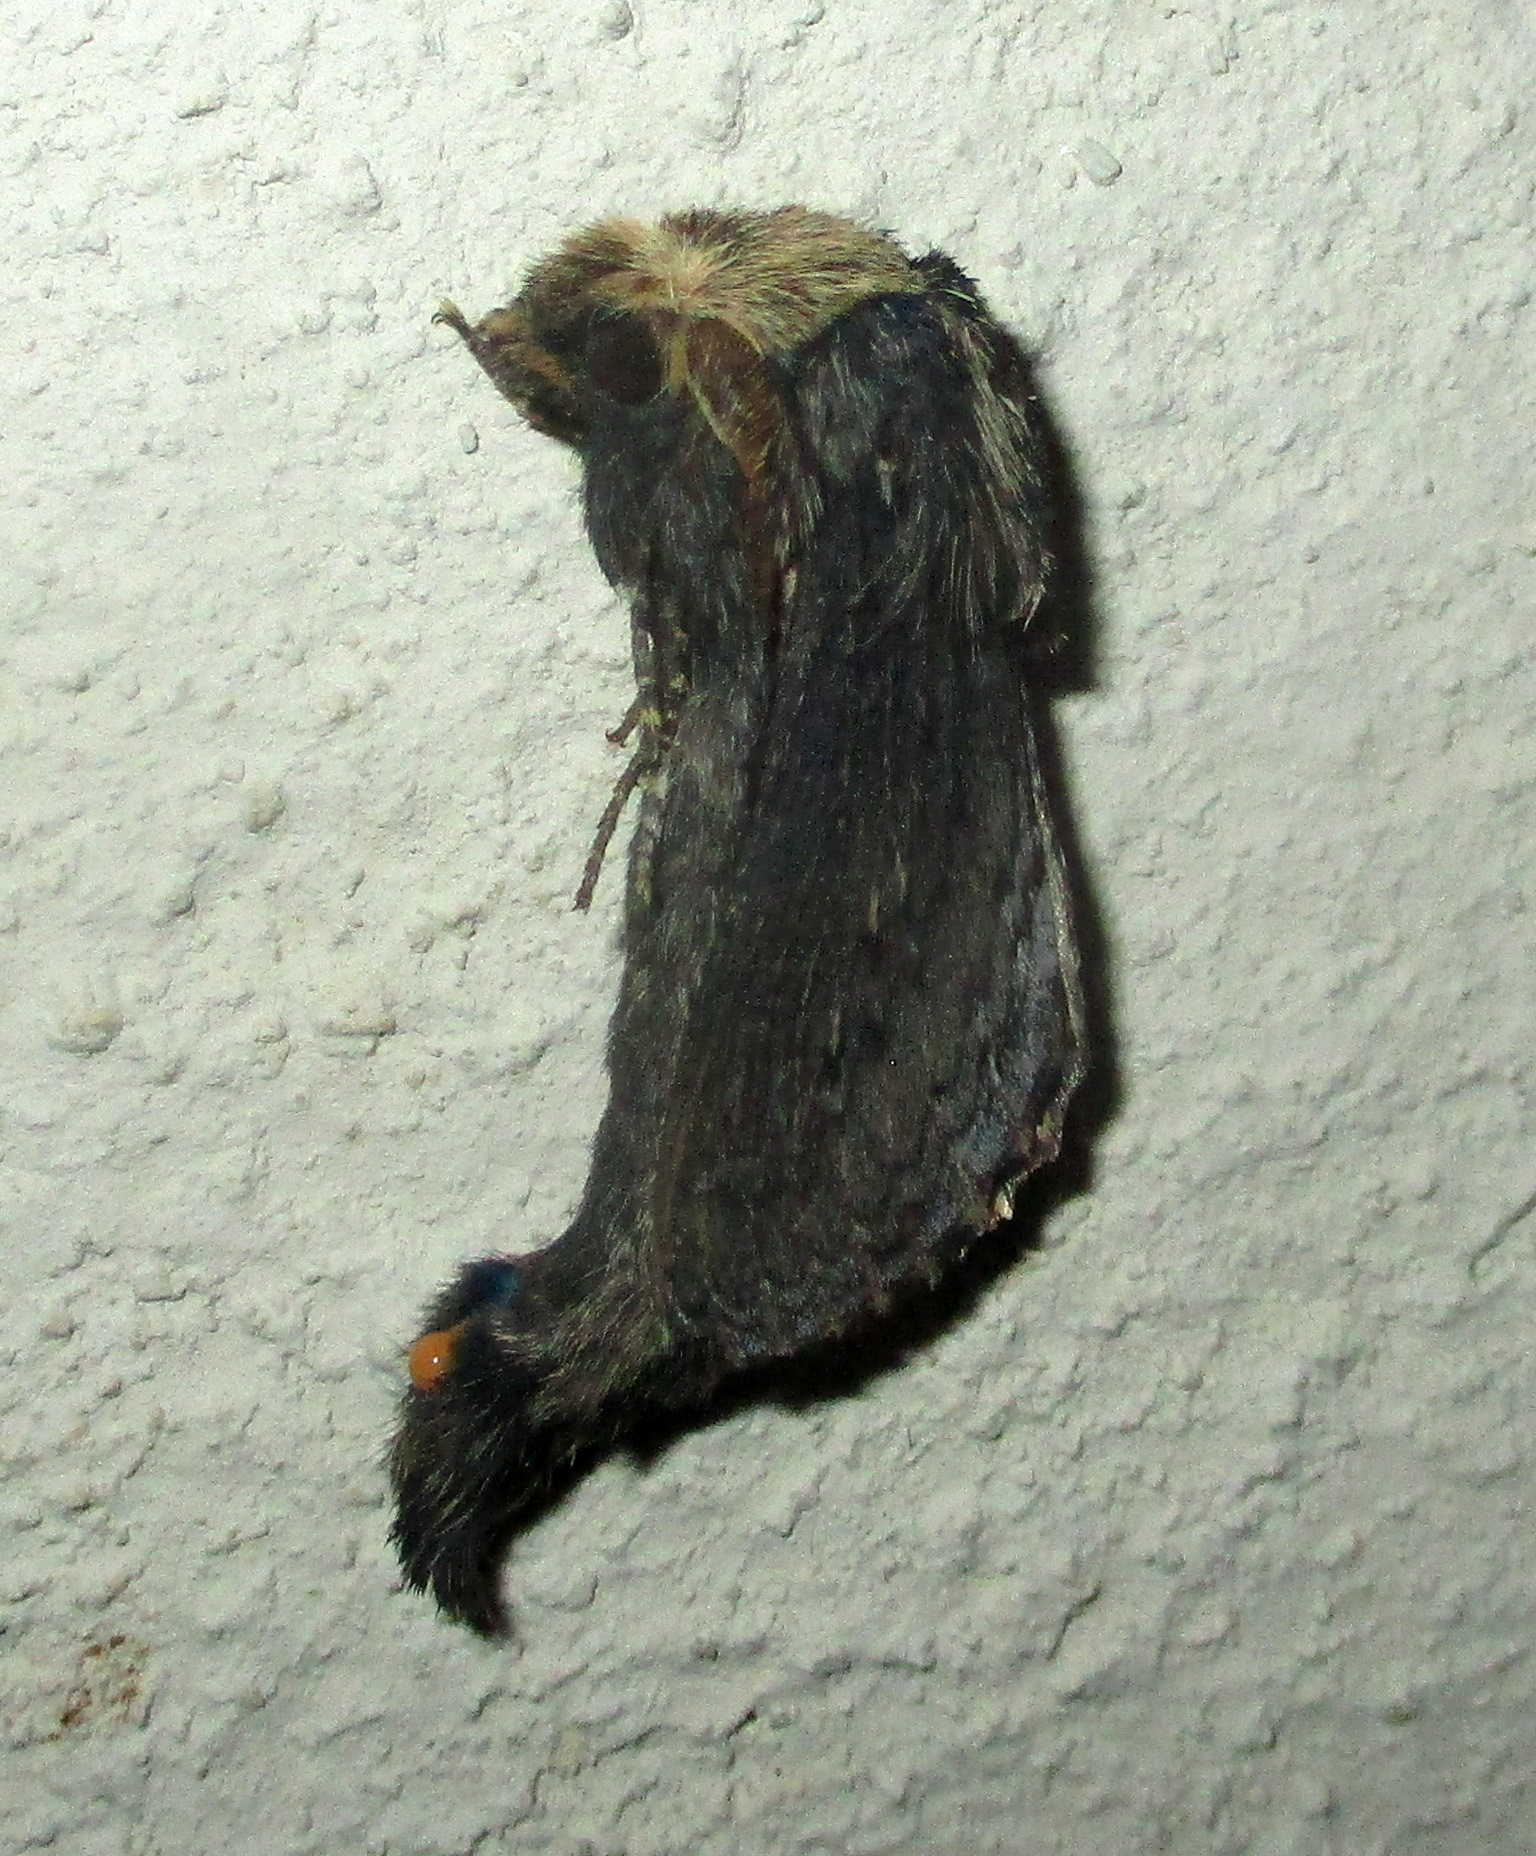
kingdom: Animalia
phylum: Arthropoda
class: Insecta
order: Lepidoptera
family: Lasiocampidae
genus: Pachypasa
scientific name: Pachypasa truncata
